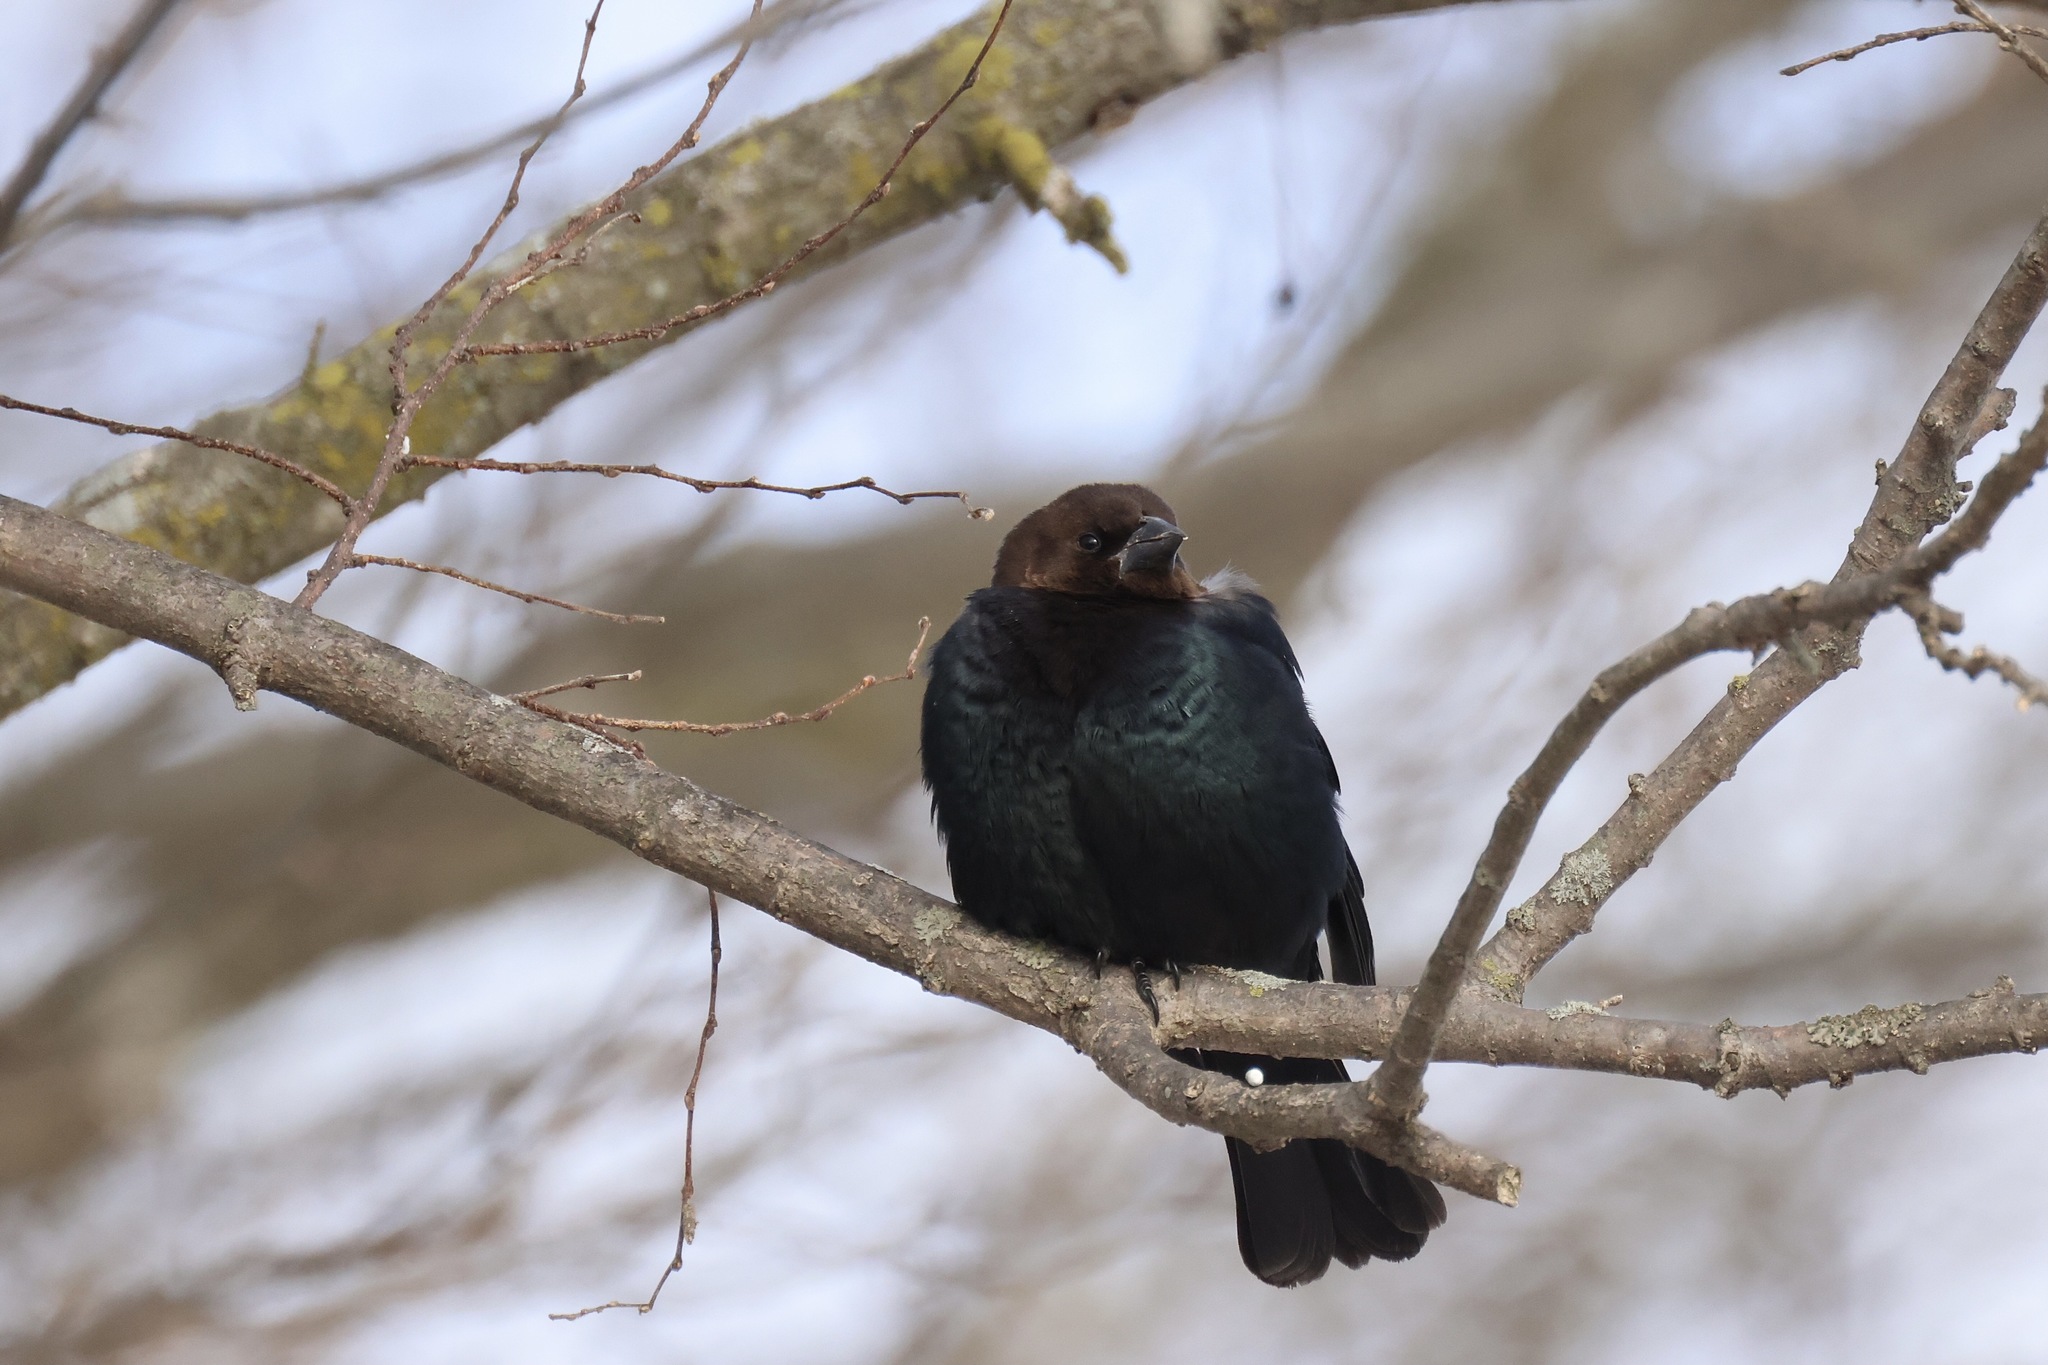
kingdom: Animalia
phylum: Chordata
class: Aves
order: Passeriformes
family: Icteridae
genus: Molothrus
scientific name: Molothrus ater
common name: Brown-headed cowbird
